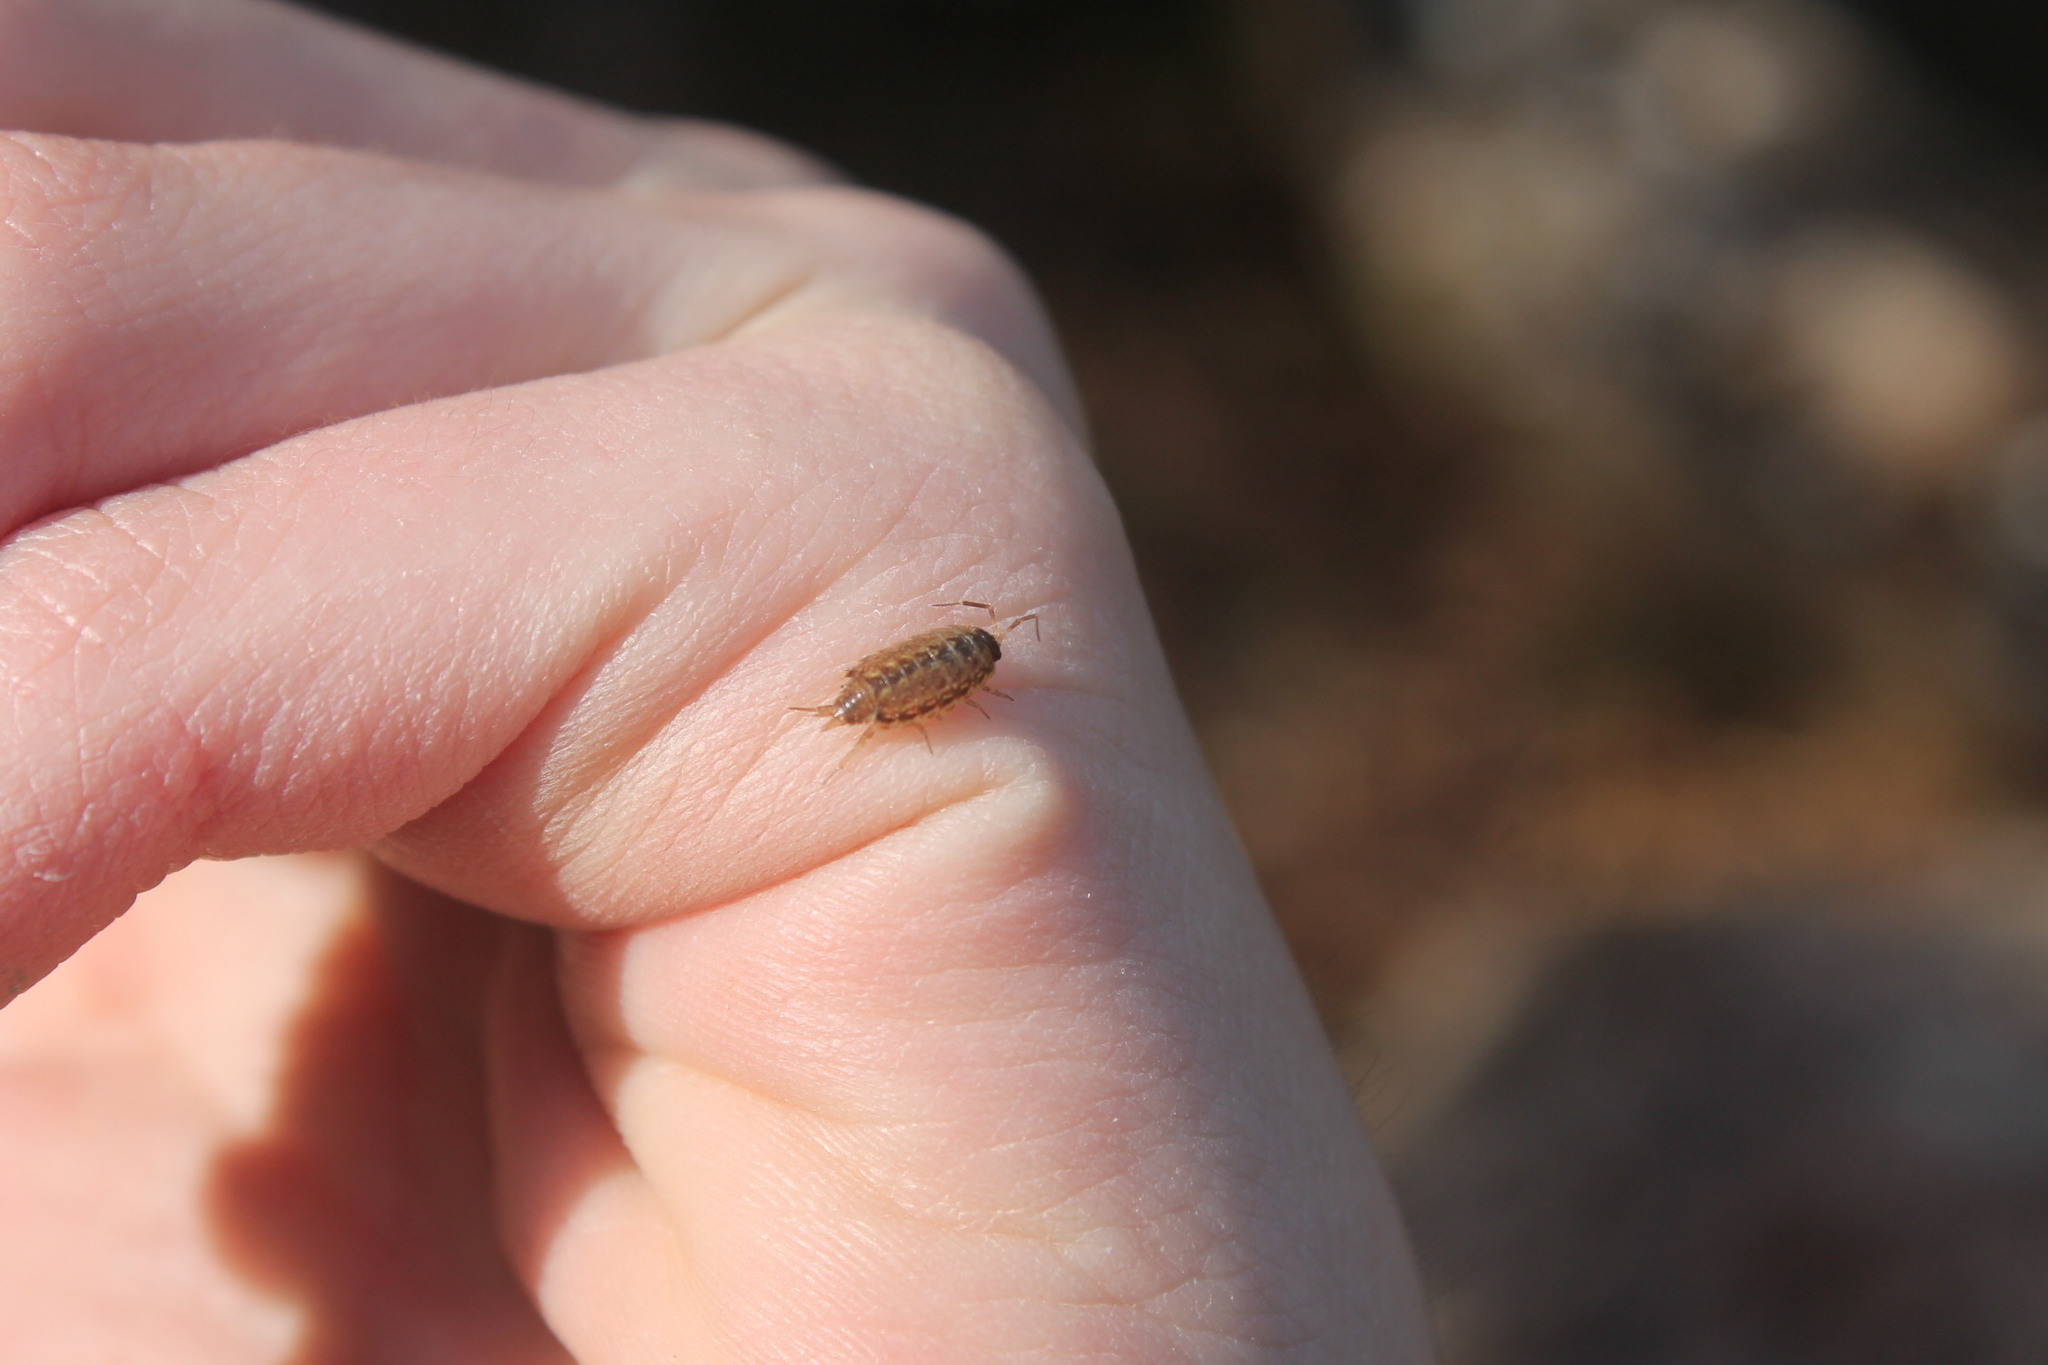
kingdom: Animalia
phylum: Arthropoda
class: Malacostraca
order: Isopoda
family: Philosciidae
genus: Philoscia
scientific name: Philoscia muscorum
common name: Common striped woodlouse
